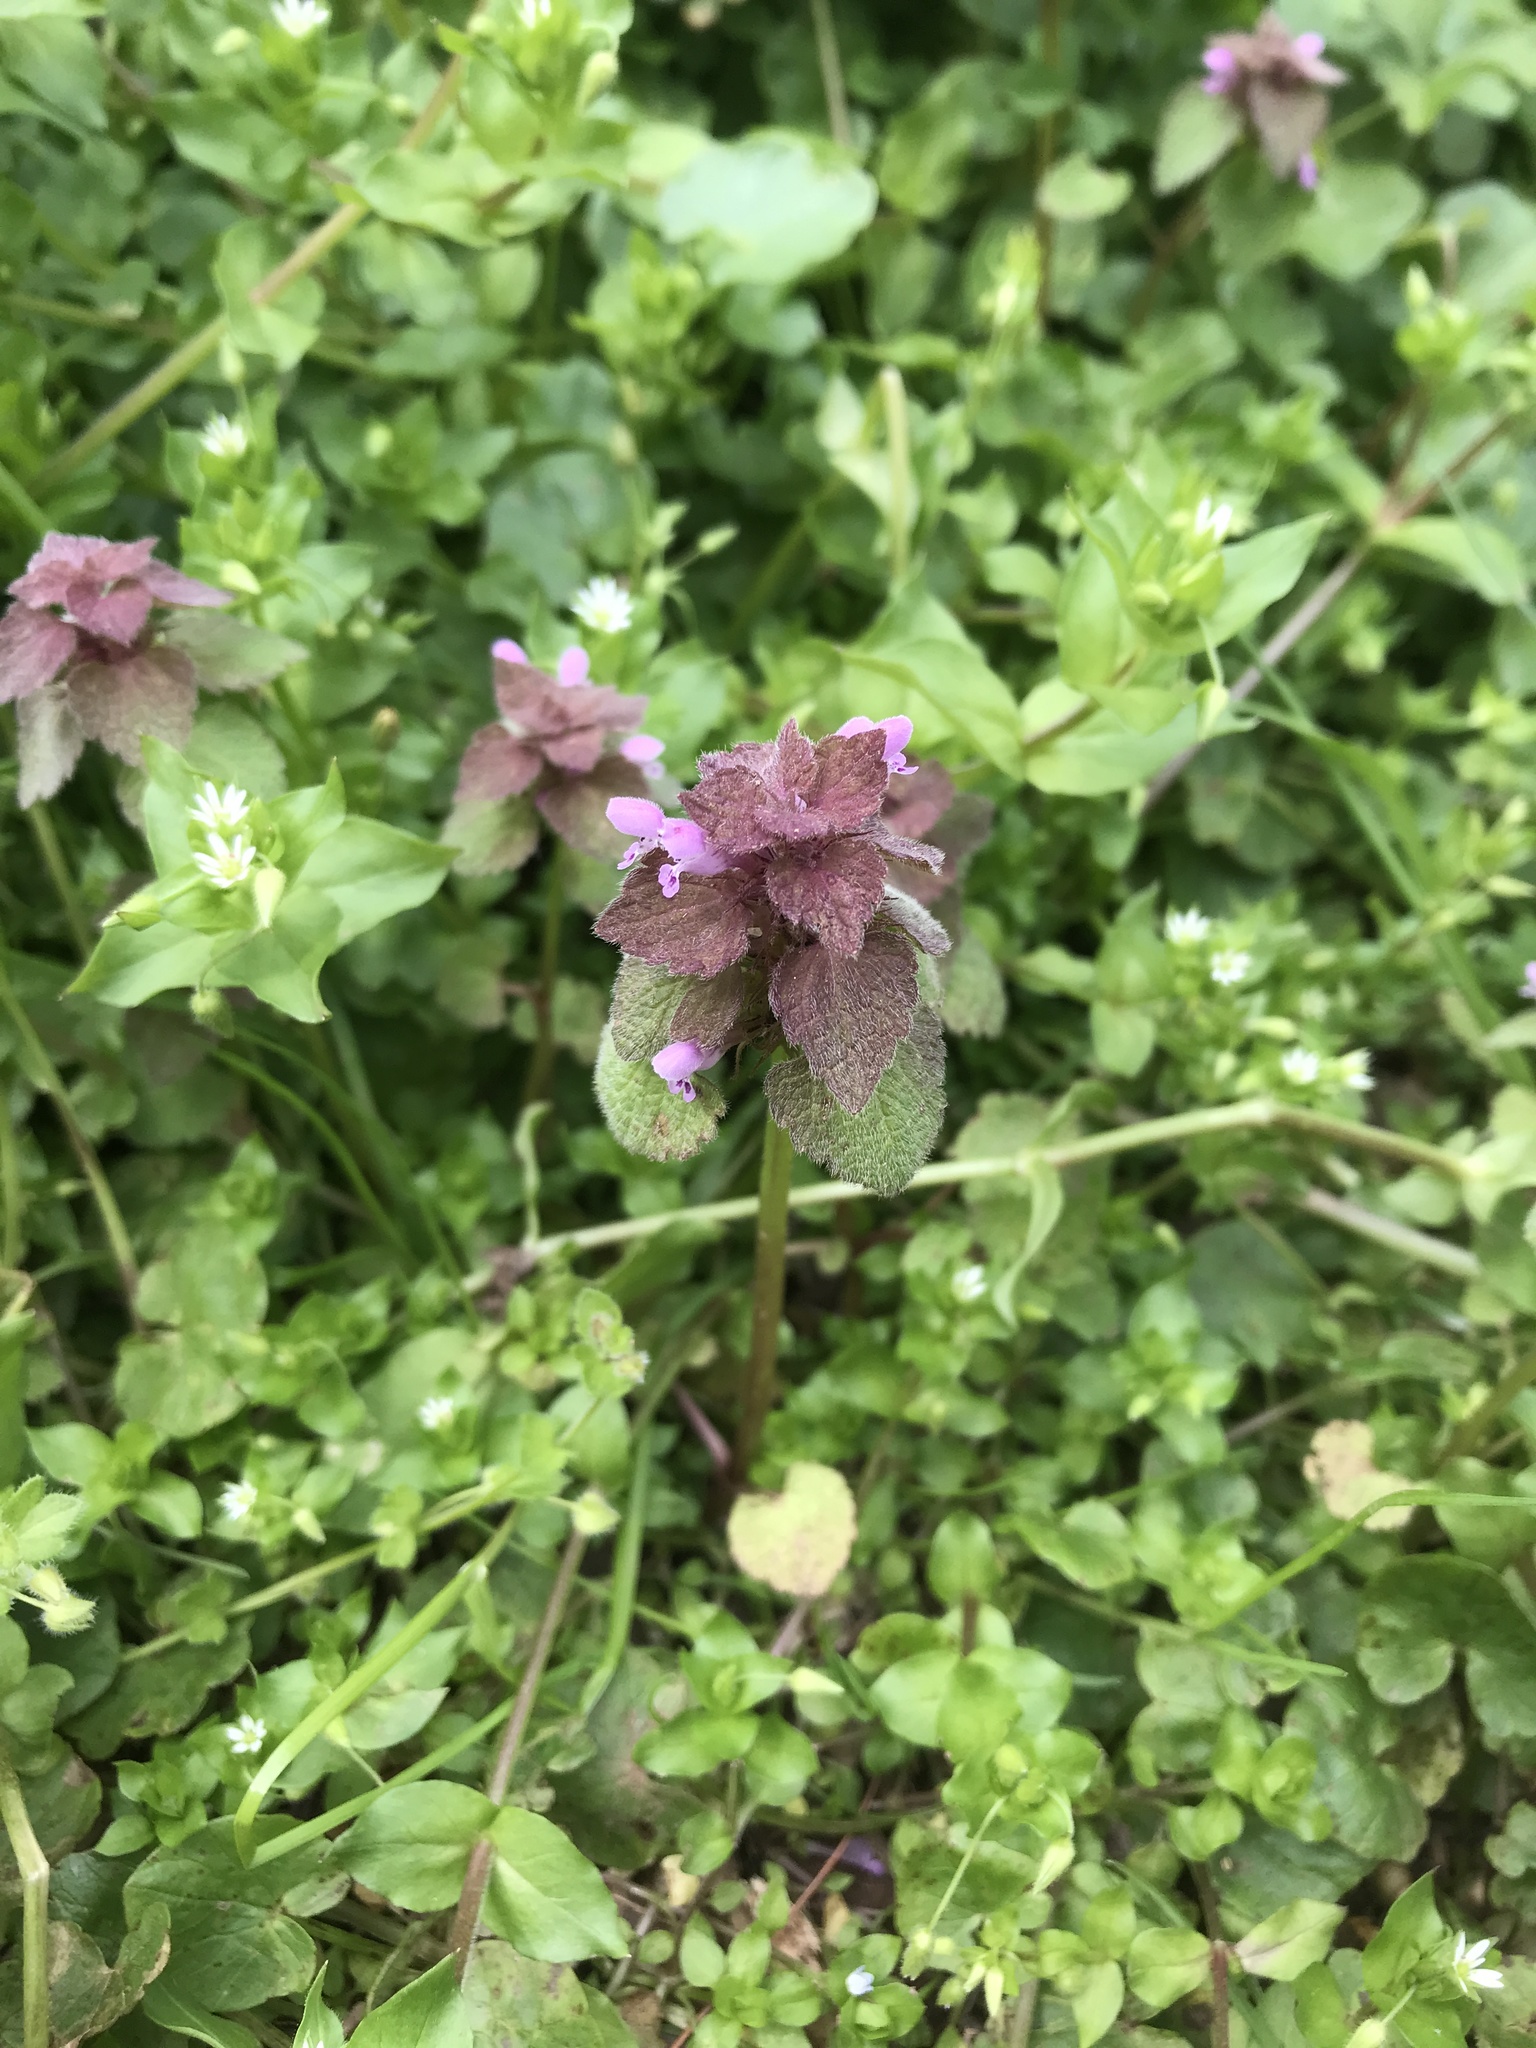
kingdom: Plantae
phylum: Tracheophyta
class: Magnoliopsida
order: Lamiales
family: Lamiaceae
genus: Lamium
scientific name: Lamium purpureum
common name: Red dead-nettle
